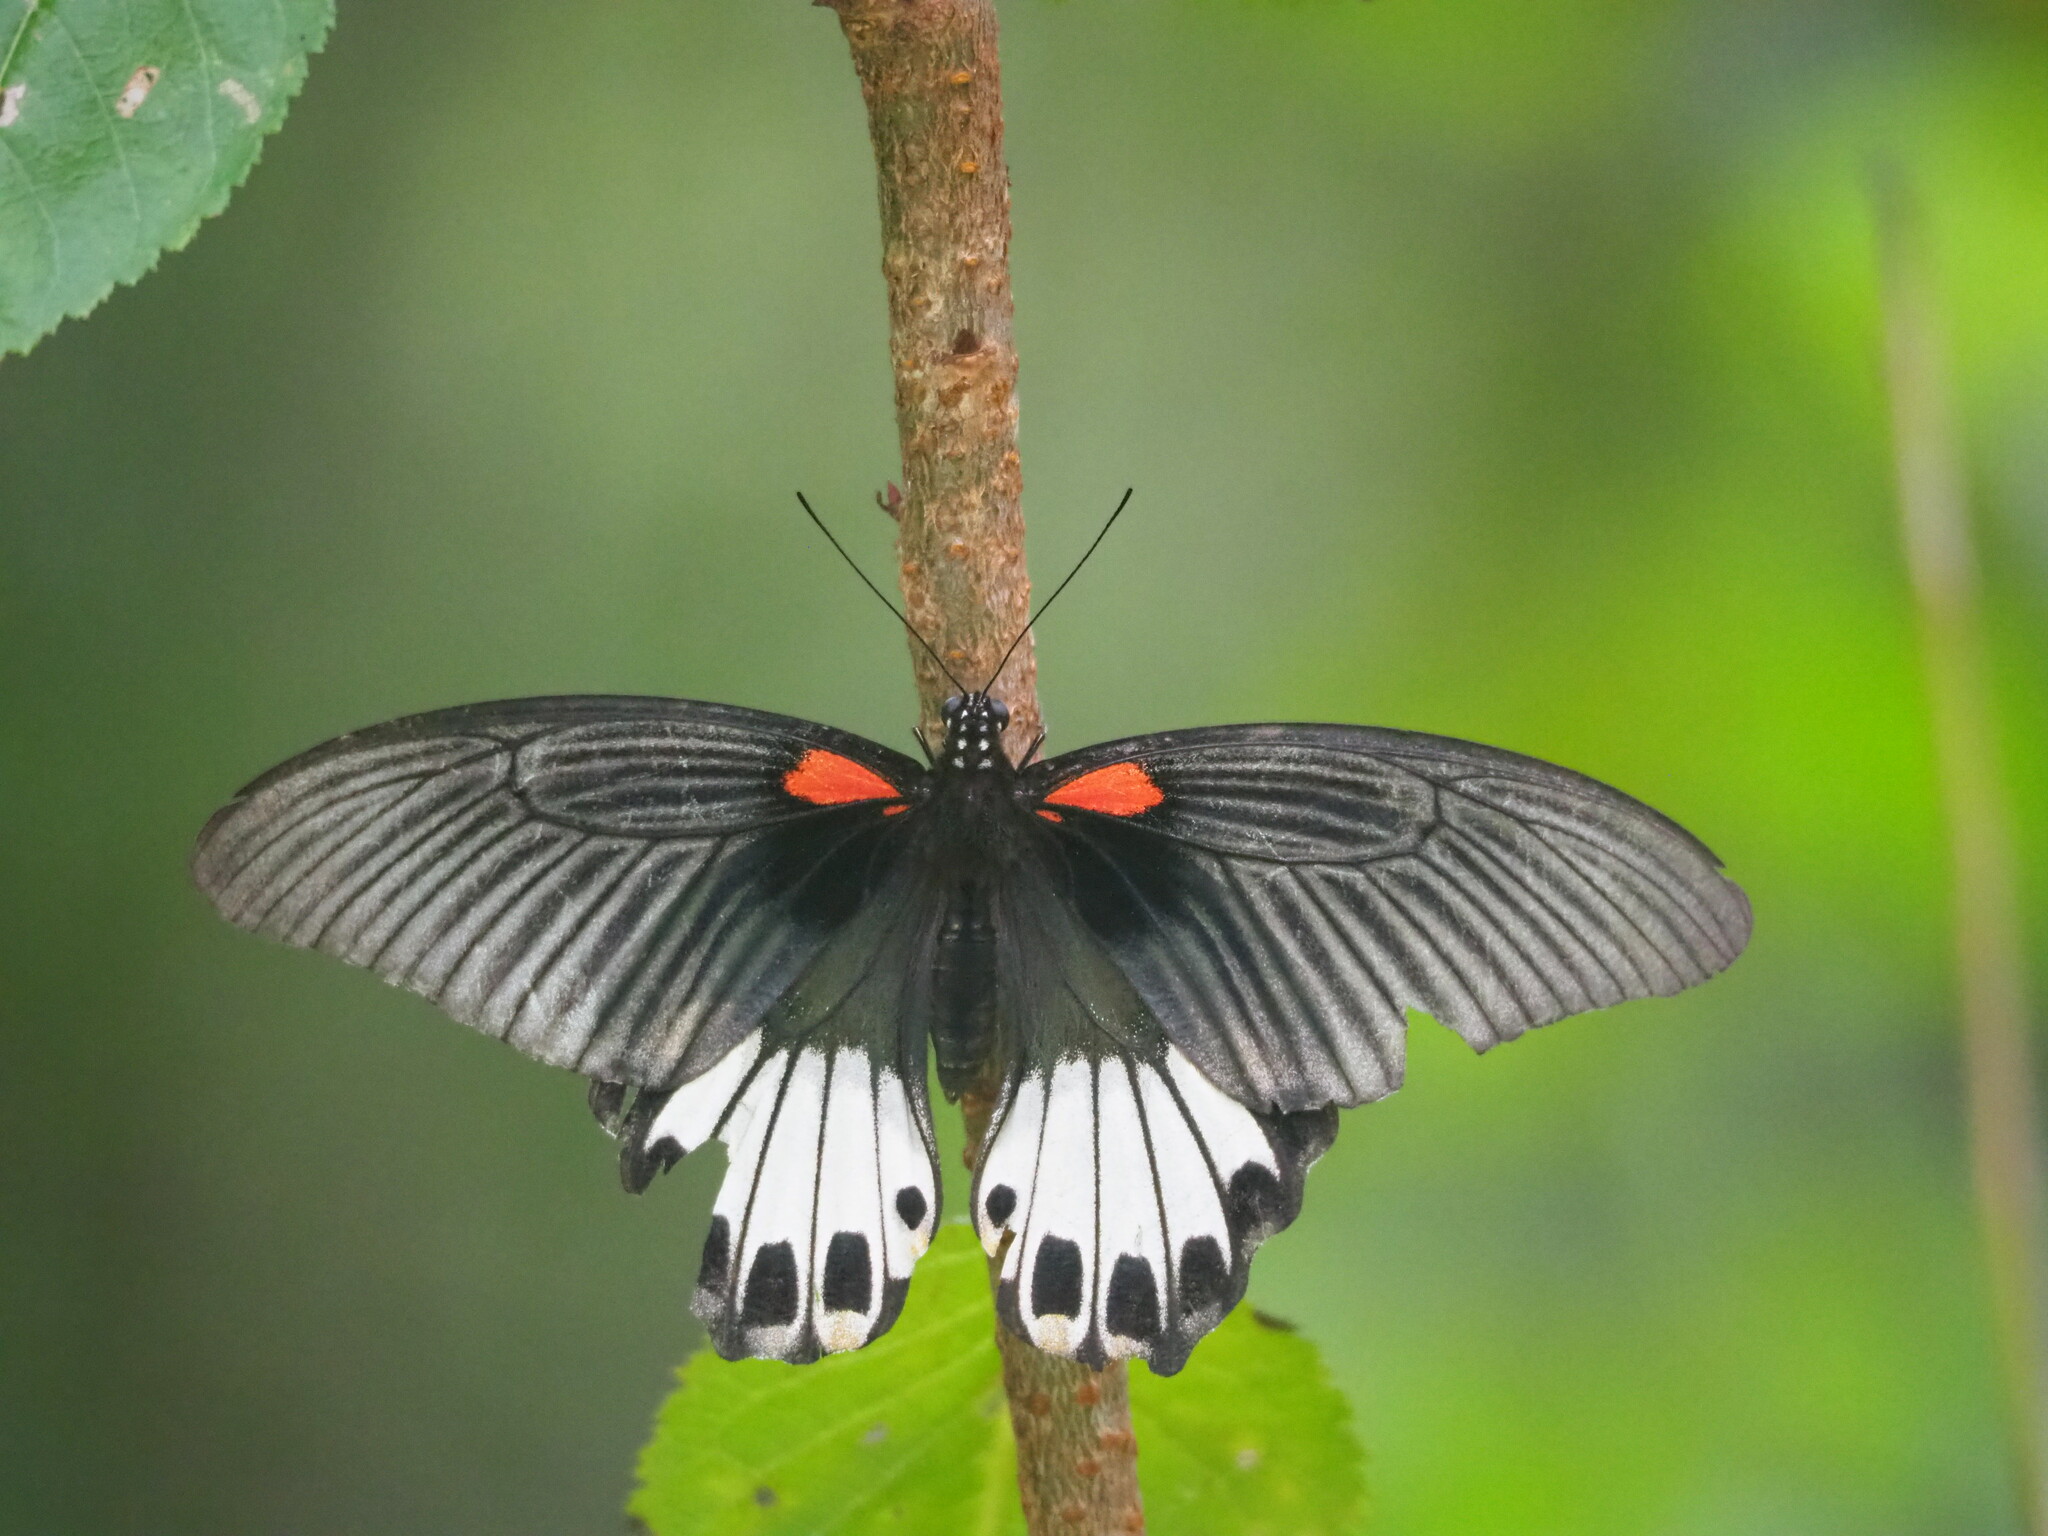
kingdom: Animalia
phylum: Arthropoda
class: Insecta
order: Lepidoptera
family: Papilionidae
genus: Papilio
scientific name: Papilio memnon
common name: Great mormon
